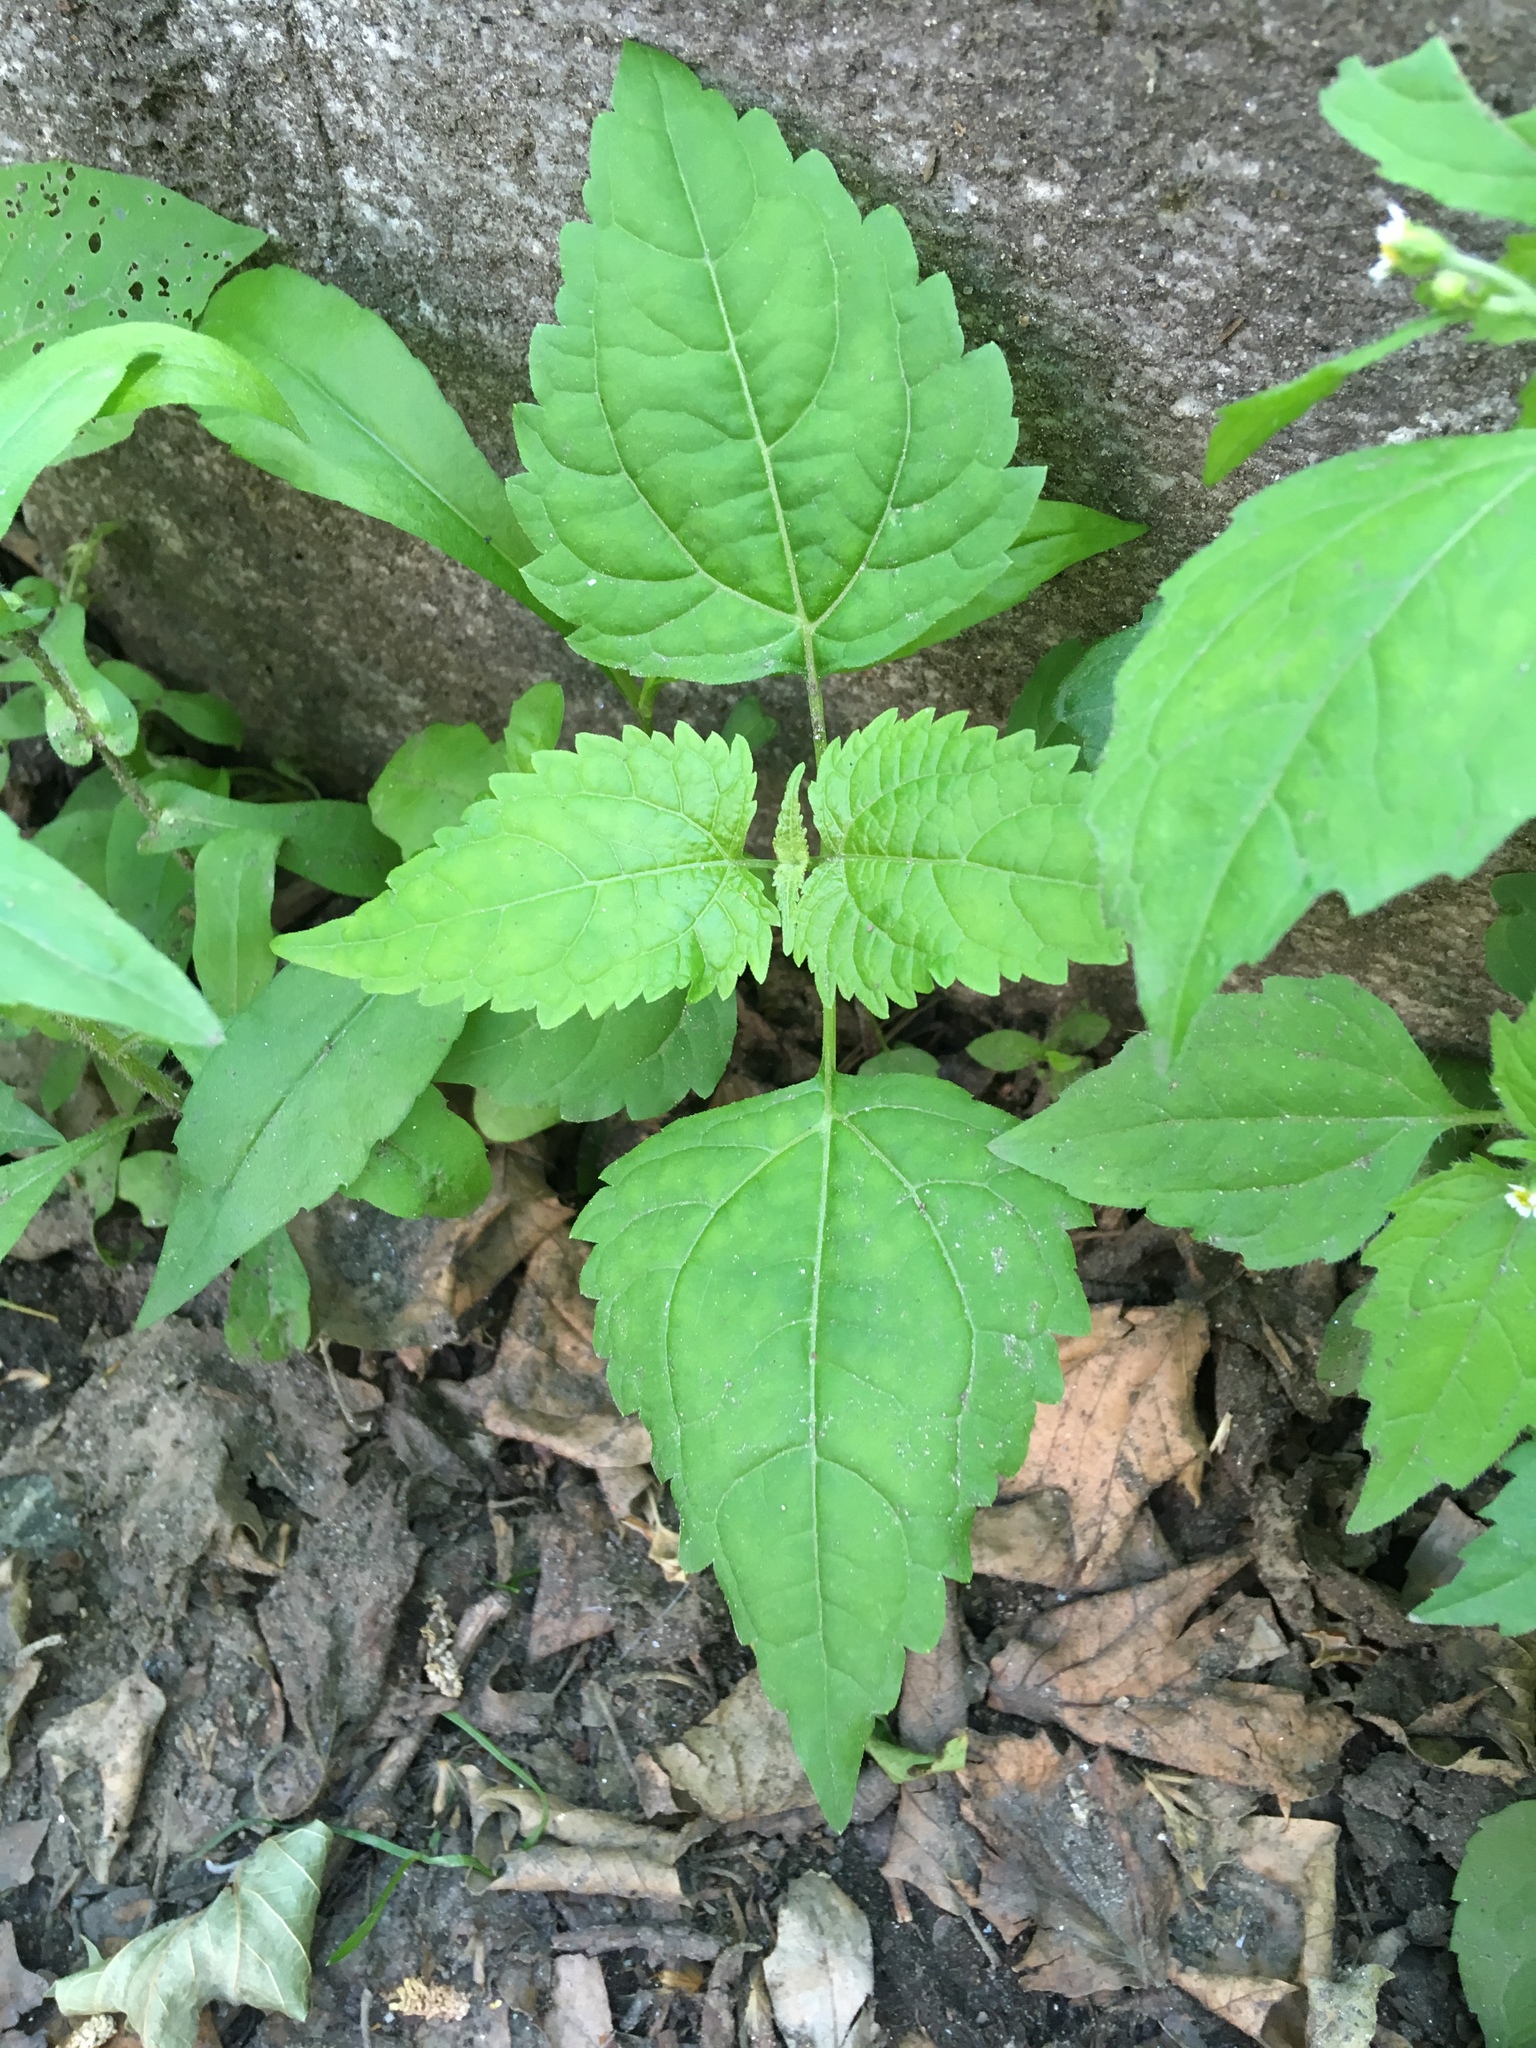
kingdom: Plantae
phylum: Tracheophyta
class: Magnoliopsida
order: Asterales
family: Asteraceae
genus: Ageratina
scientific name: Ageratina altissima
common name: White snakeroot
